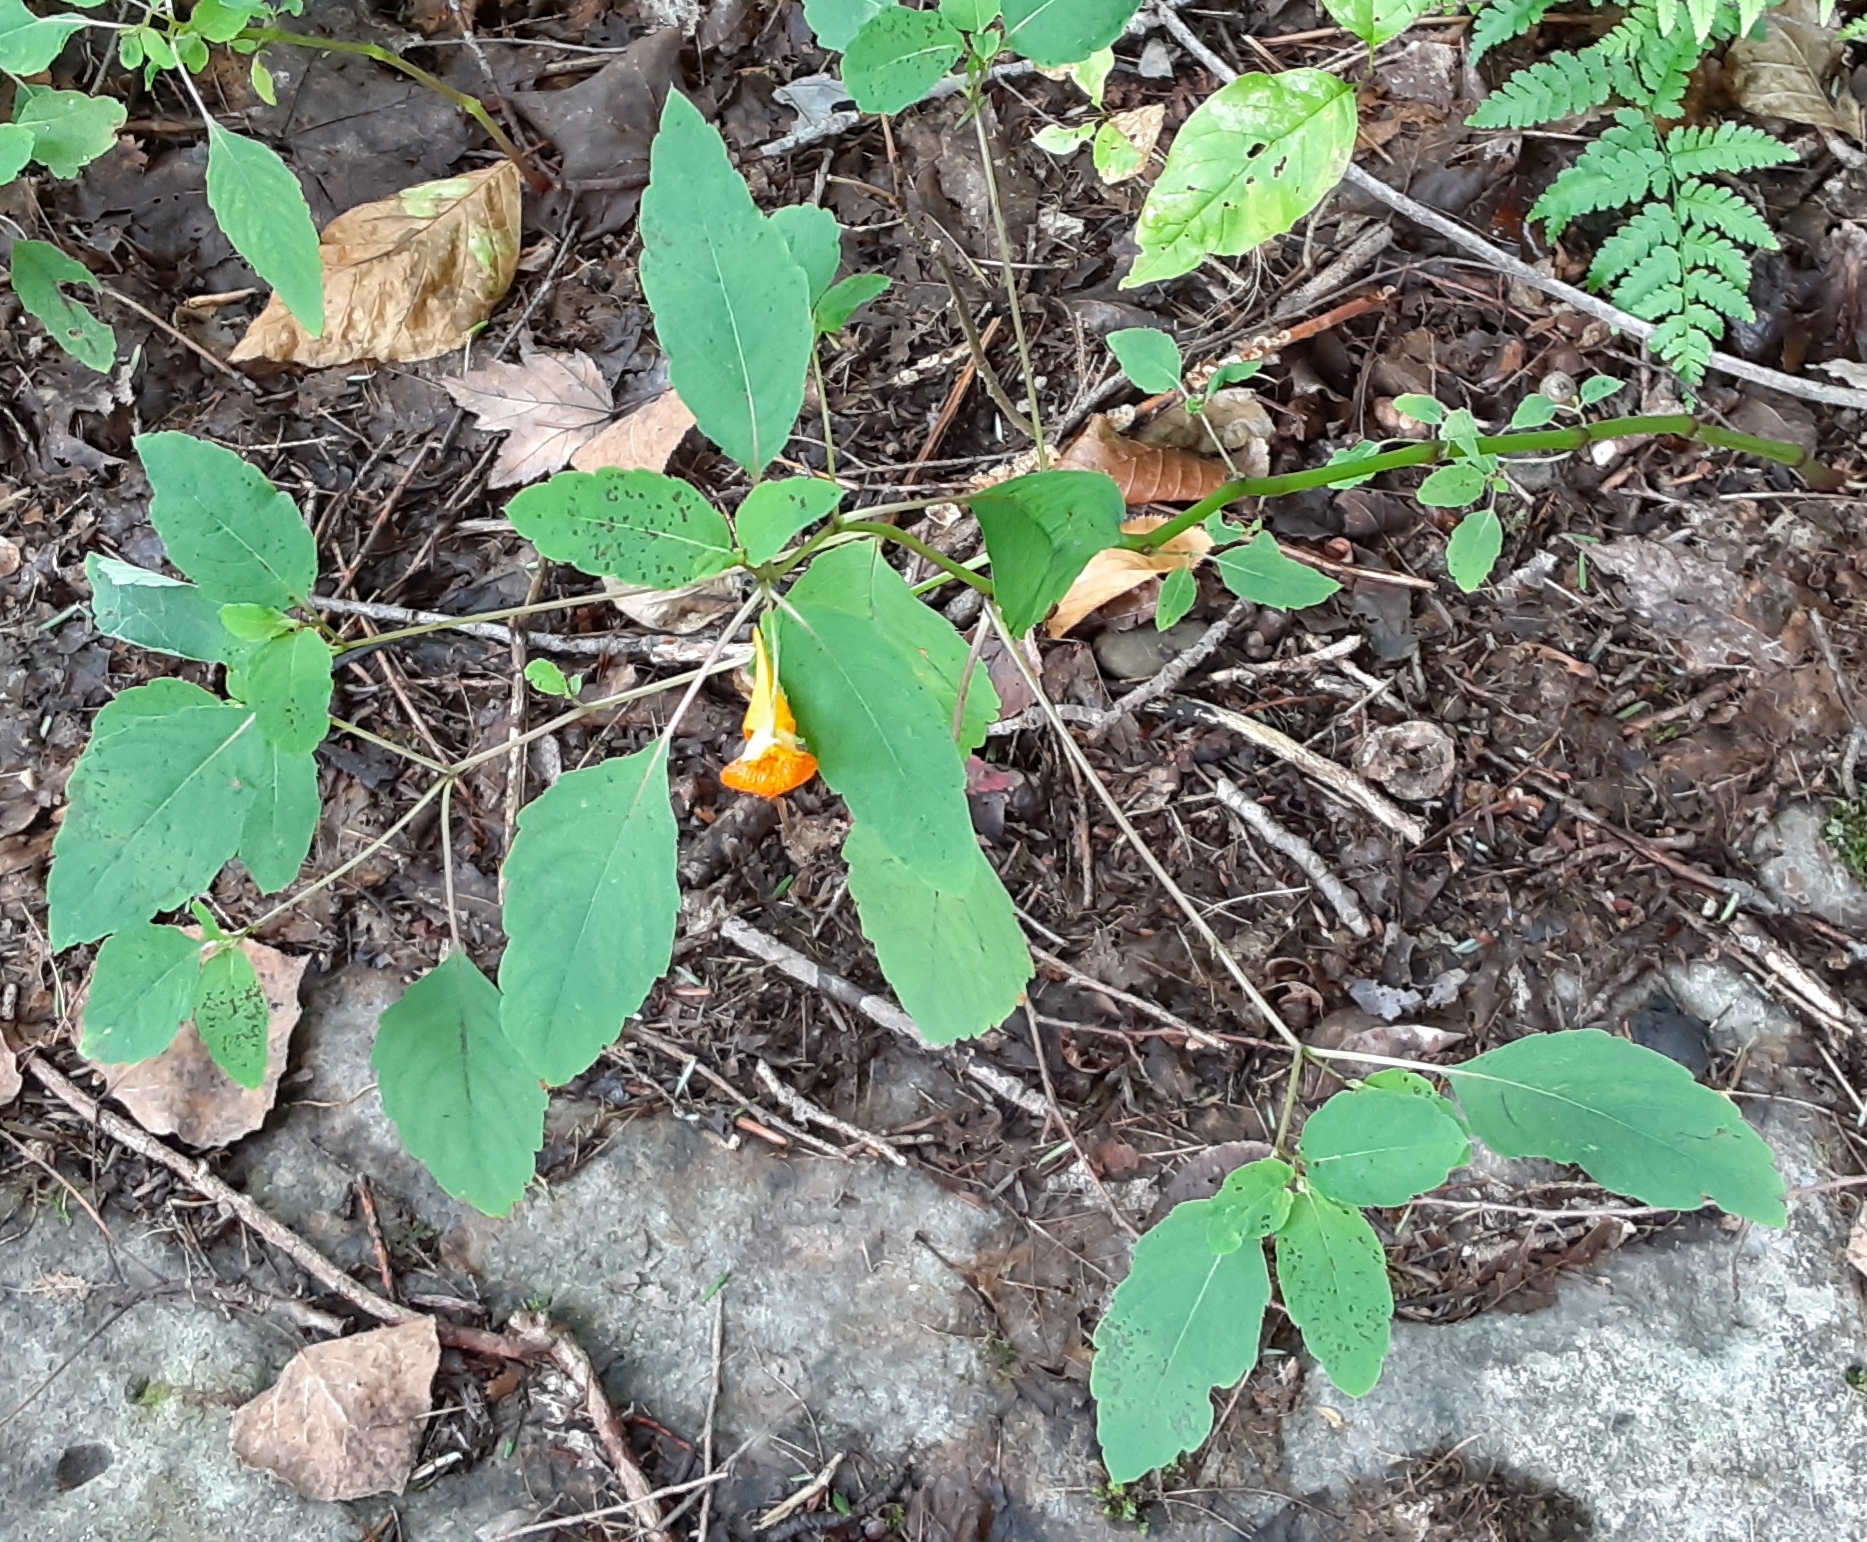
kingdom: Plantae
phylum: Tracheophyta
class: Magnoliopsida
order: Ericales
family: Balsaminaceae
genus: Impatiens
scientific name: Impatiens capensis
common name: Orange balsam
